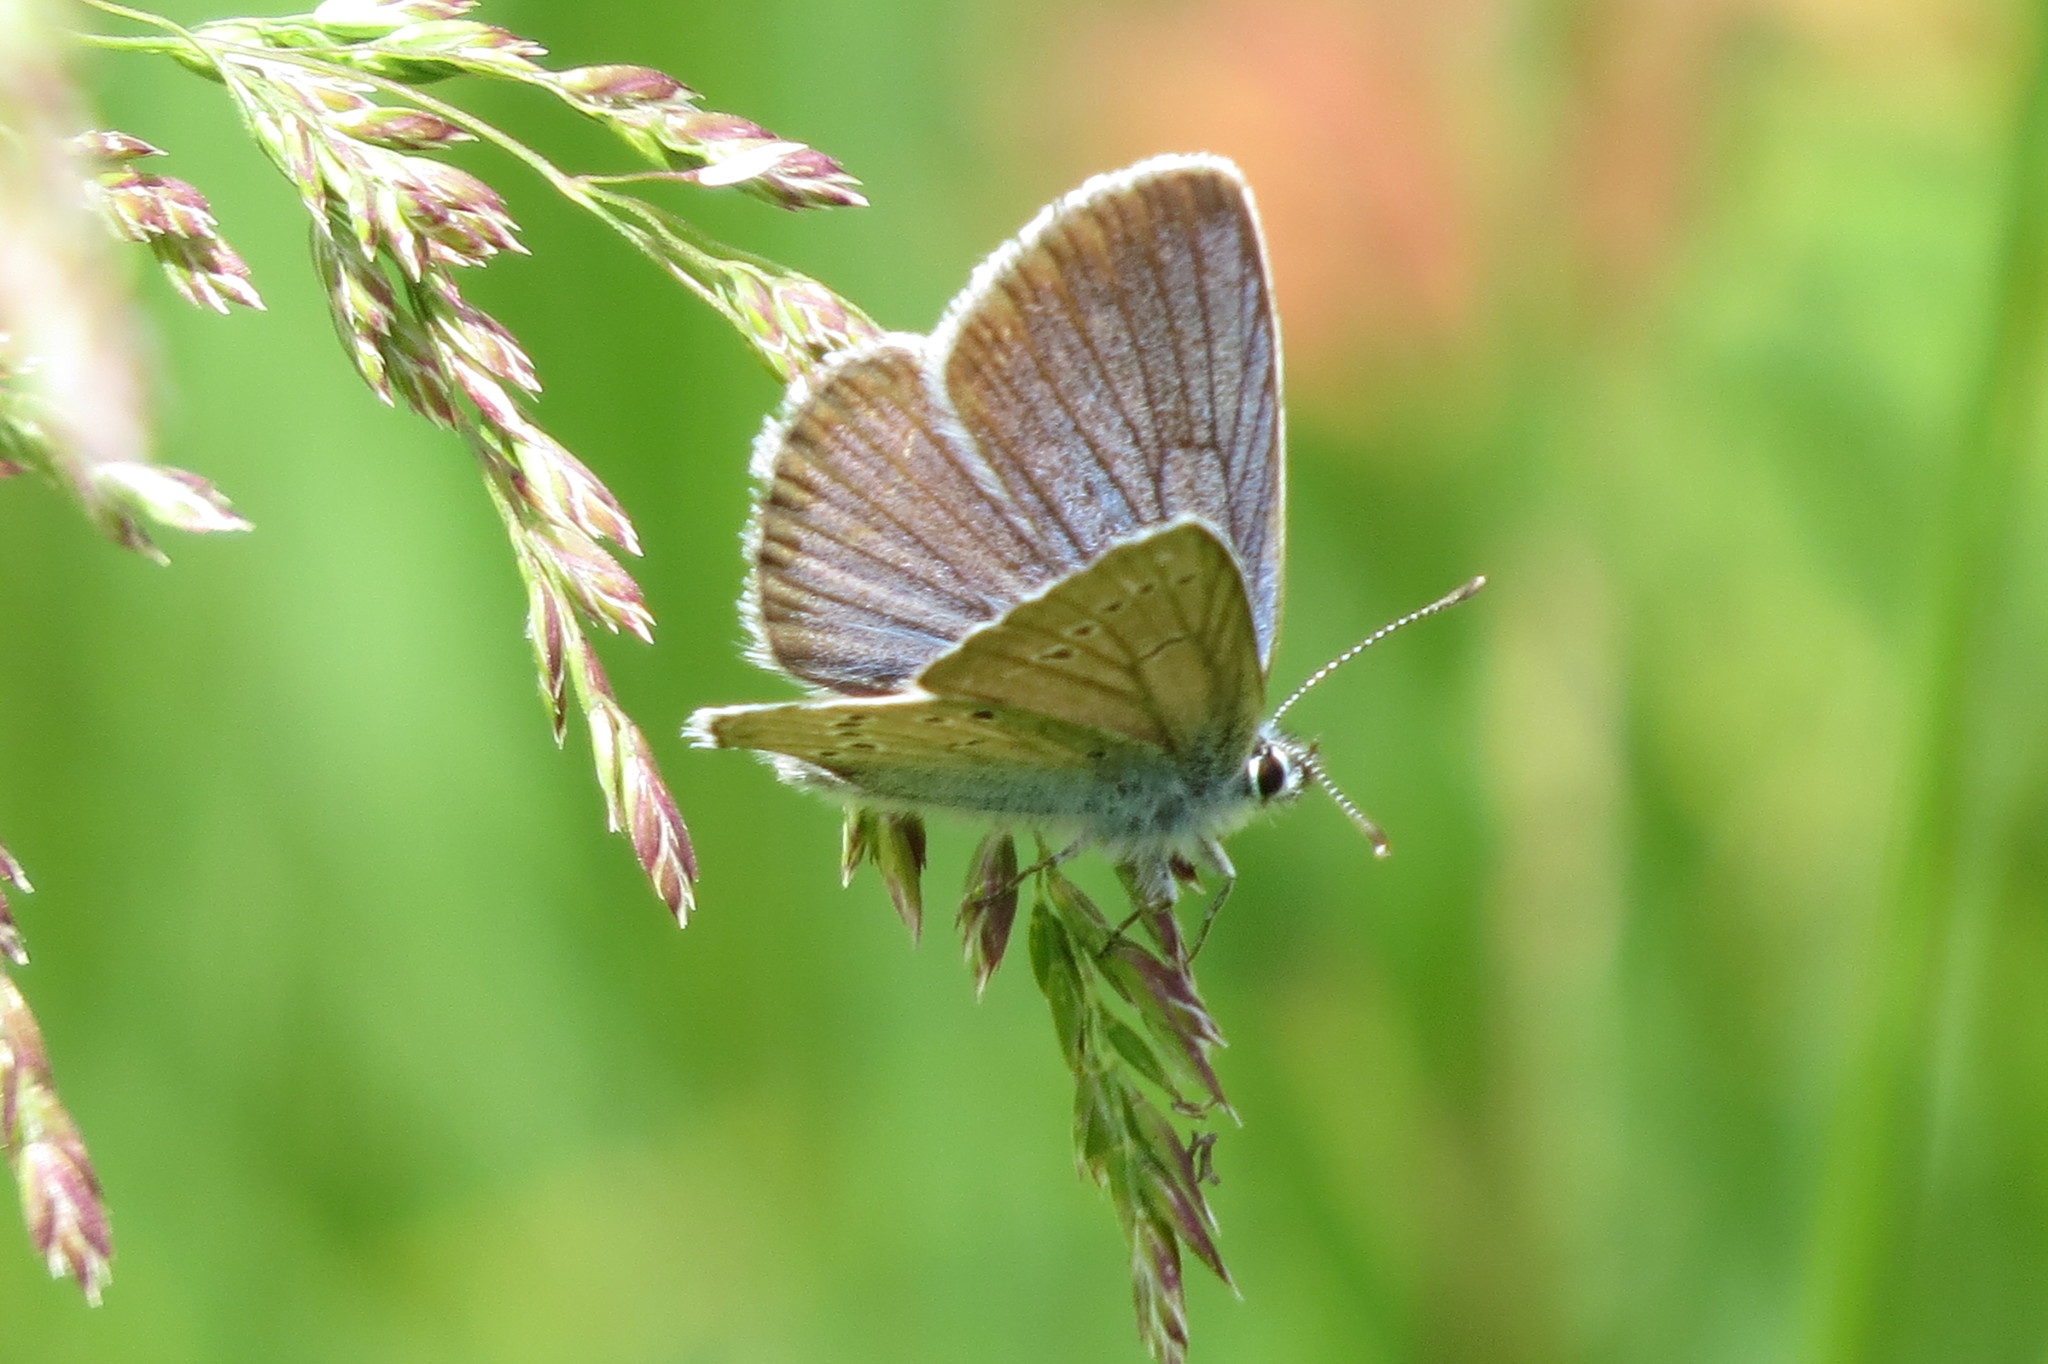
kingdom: Animalia
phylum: Arthropoda
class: Insecta
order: Lepidoptera
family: Lycaenidae
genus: Cyaniris
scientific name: Cyaniris semiargus
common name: Mazarine blue
